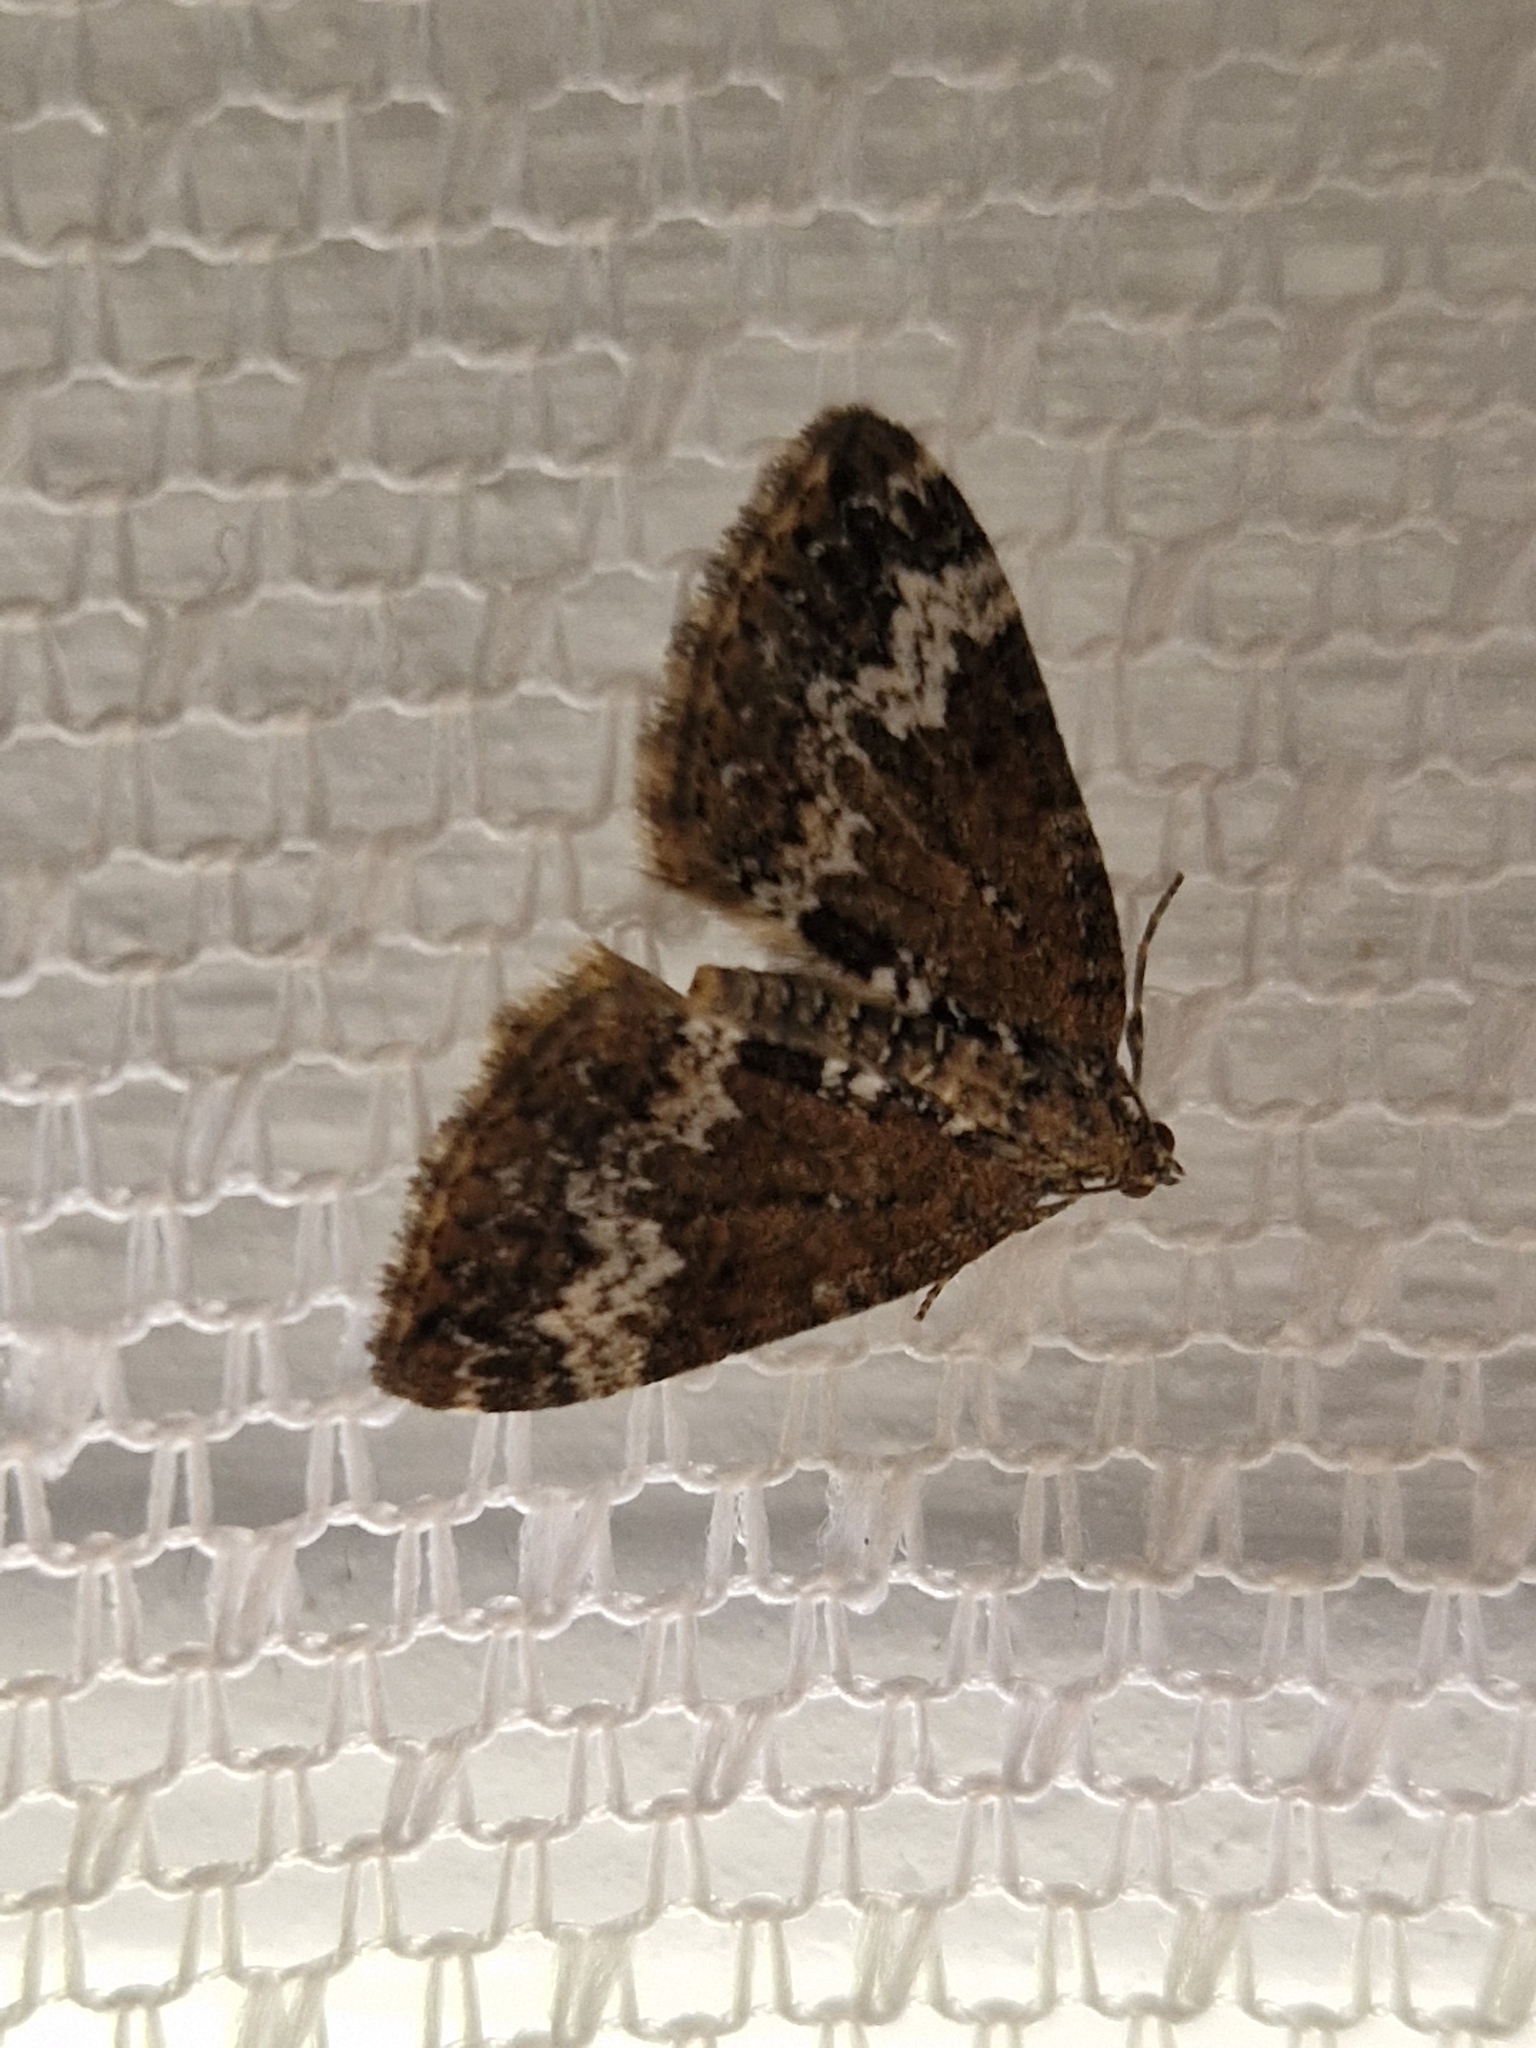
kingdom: Animalia
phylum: Arthropoda
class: Insecta
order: Lepidoptera
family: Geometridae
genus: Perizoma
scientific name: Perizoma alchemillata
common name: Small rivulet
